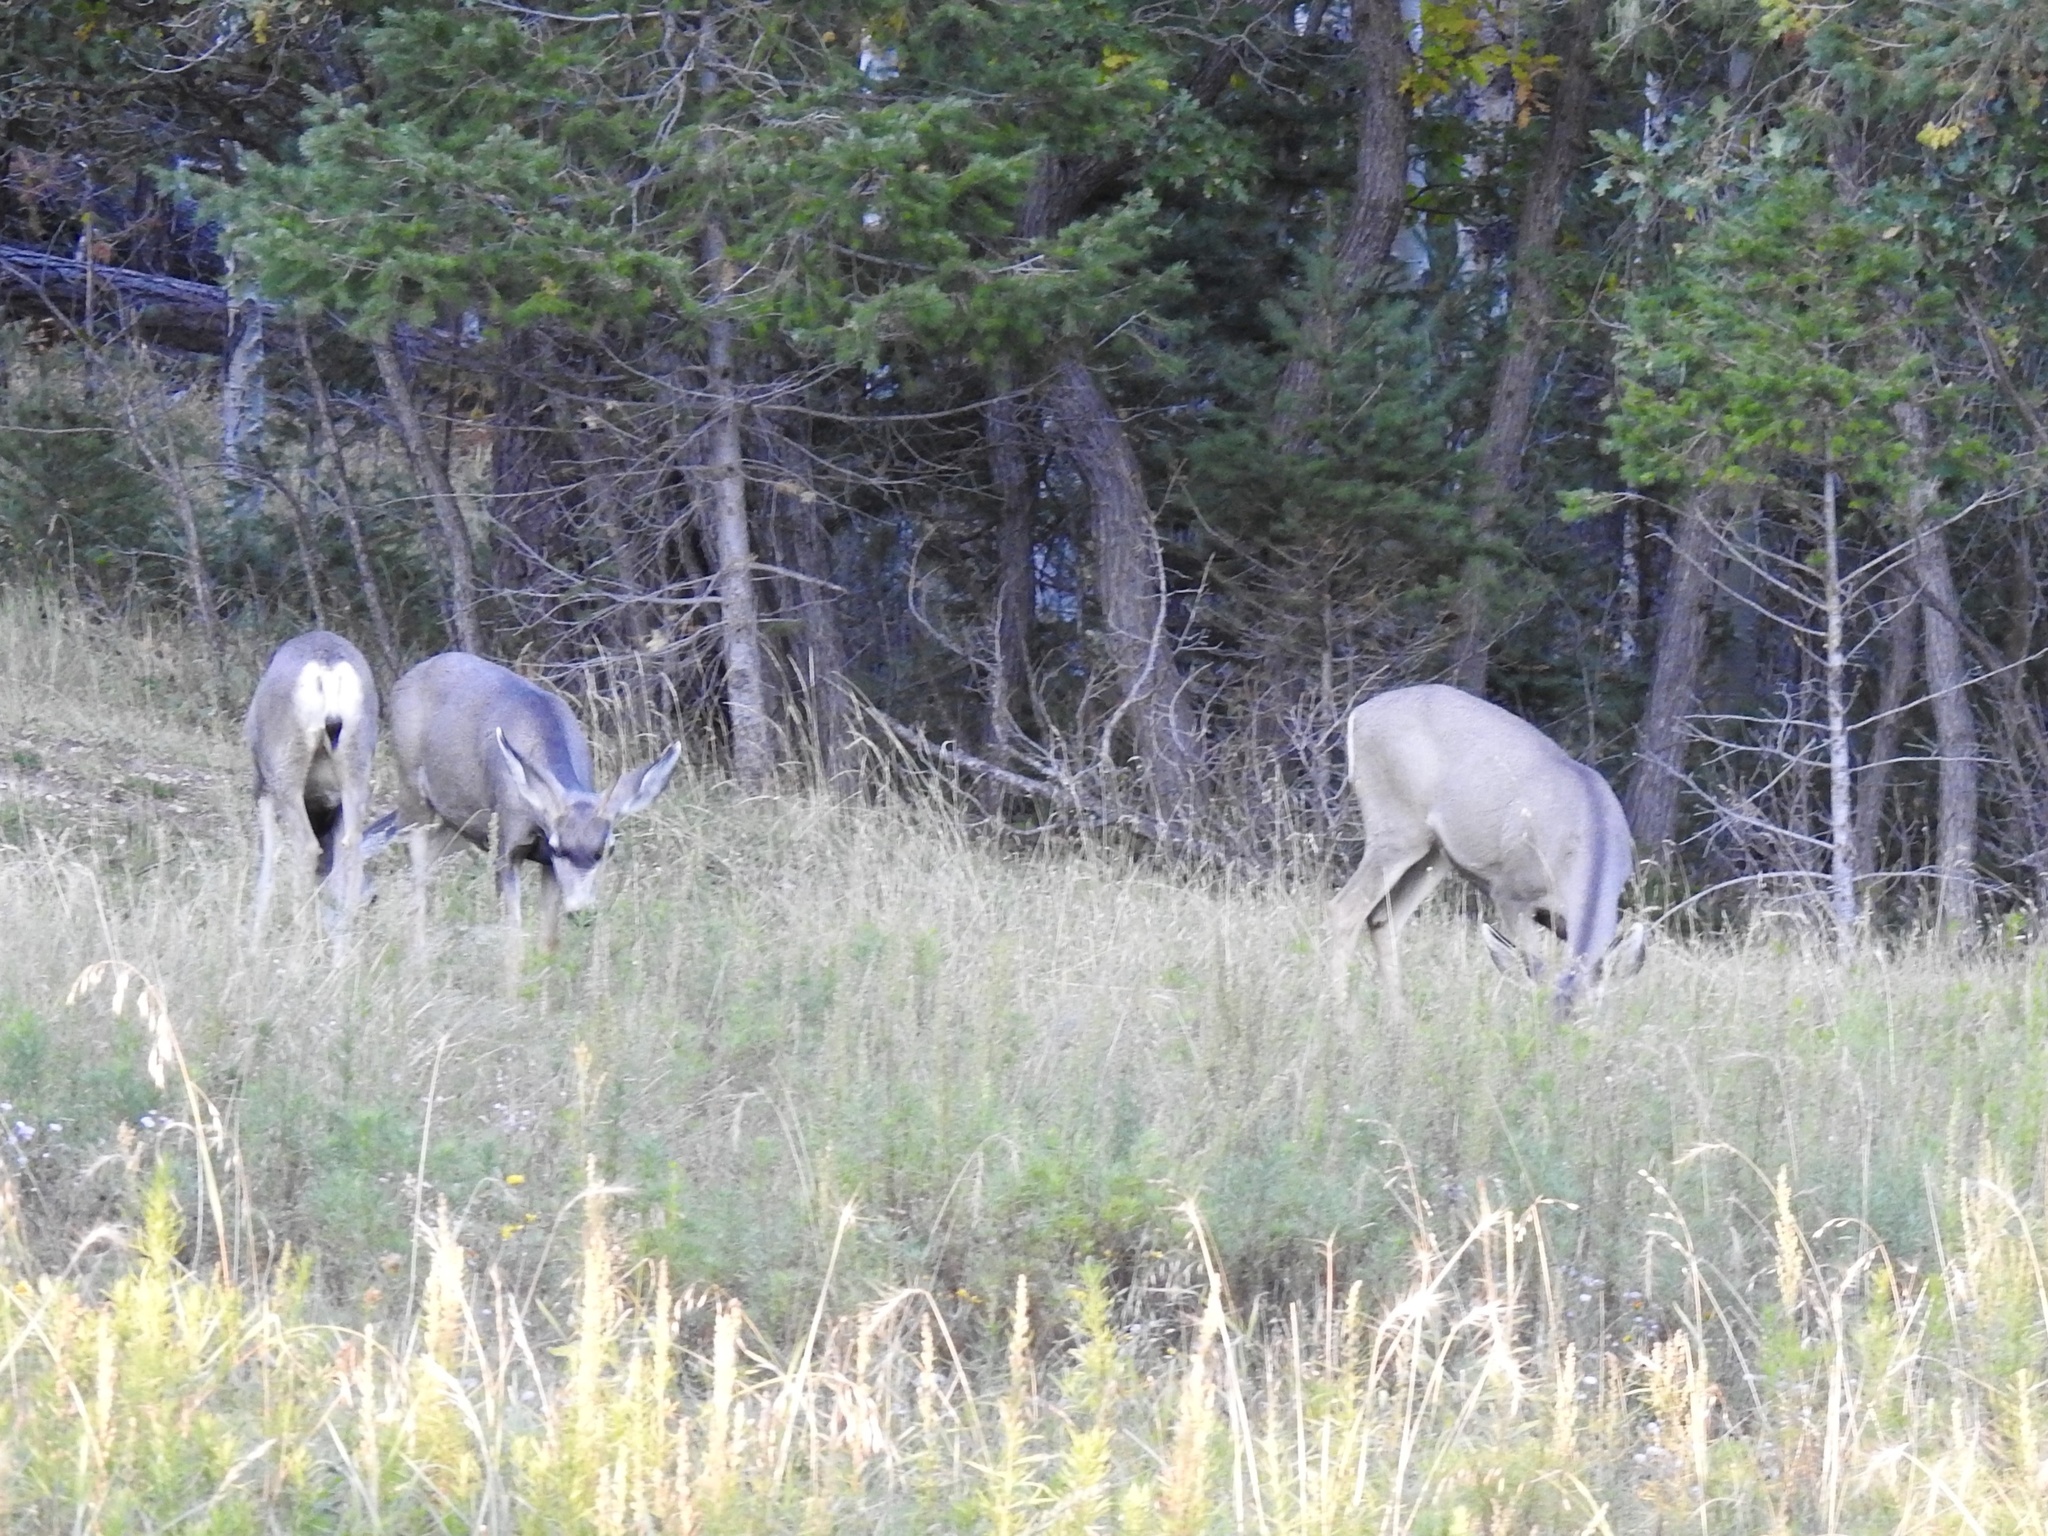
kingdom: Animalia
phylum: Chordata
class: Mammalia
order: Artiodactyla
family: Cervidae
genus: Odocoileus
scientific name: Odocoileus hemionus
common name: Mule deer
